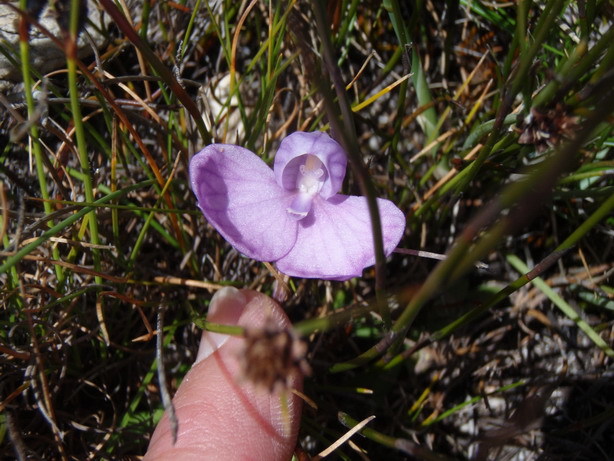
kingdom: Plantae
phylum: Tracheophyta
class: Liliopsida
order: Asparagales
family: Orchidaceae
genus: Disa
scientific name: Disa schizodioides
